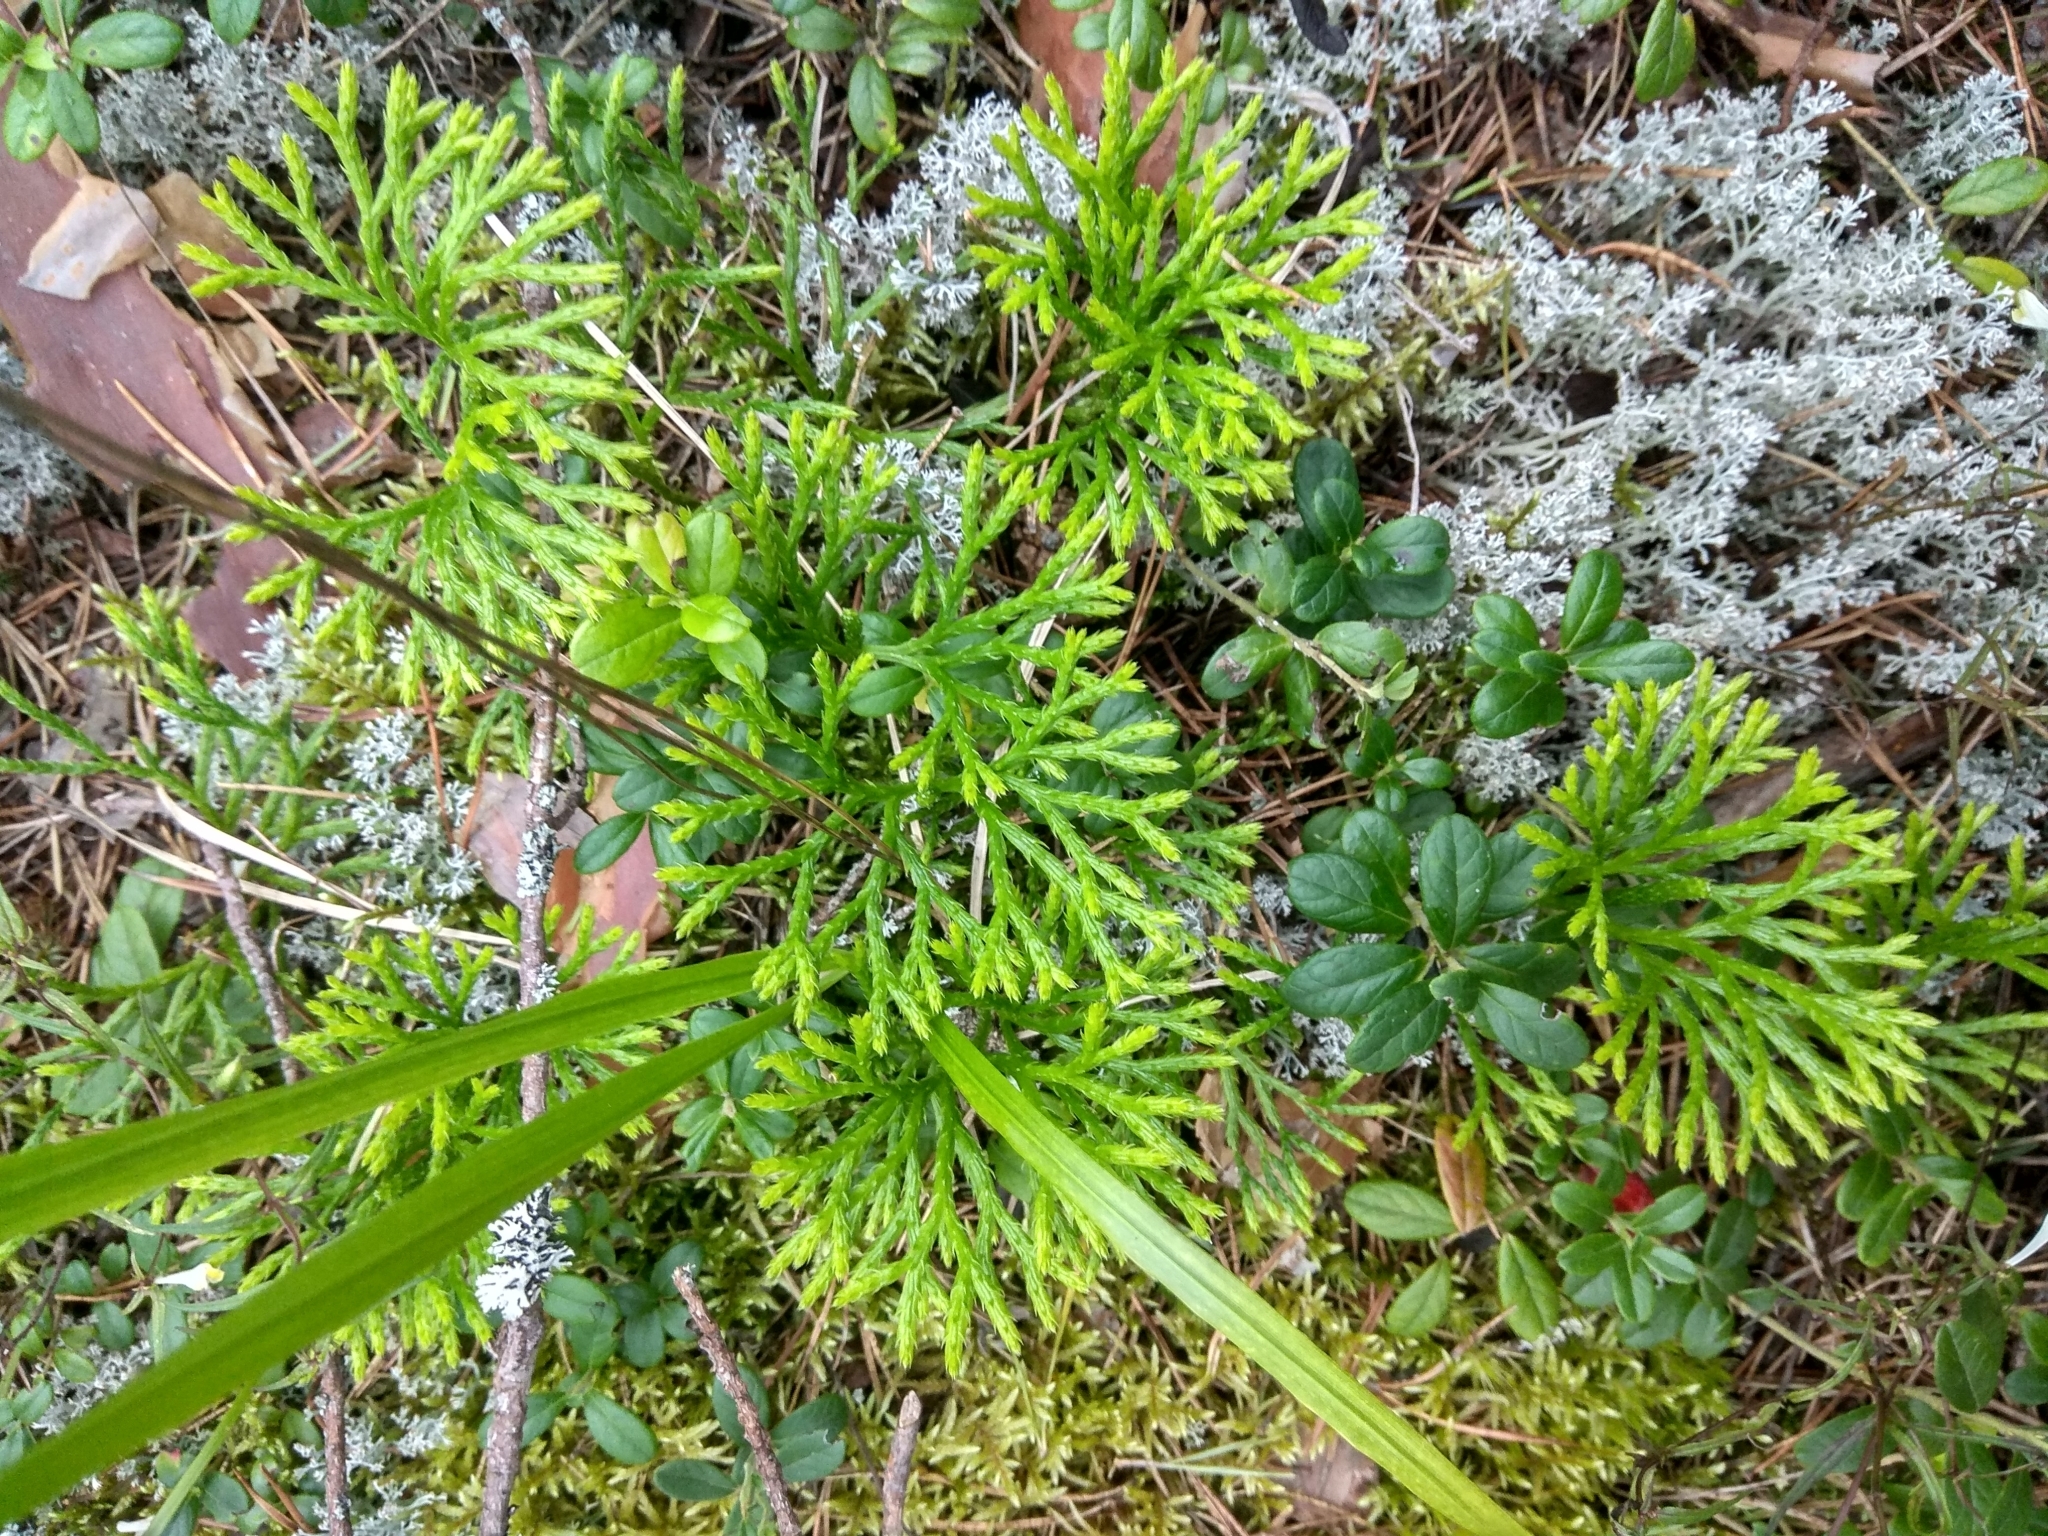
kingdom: Plantae
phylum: Tracheophyta
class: Lycopodiopsida
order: Lycopodiales
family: Lycopodiaceae
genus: Diphasiastrum
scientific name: Diphasiastrum complanatum
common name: Northern running-pine
